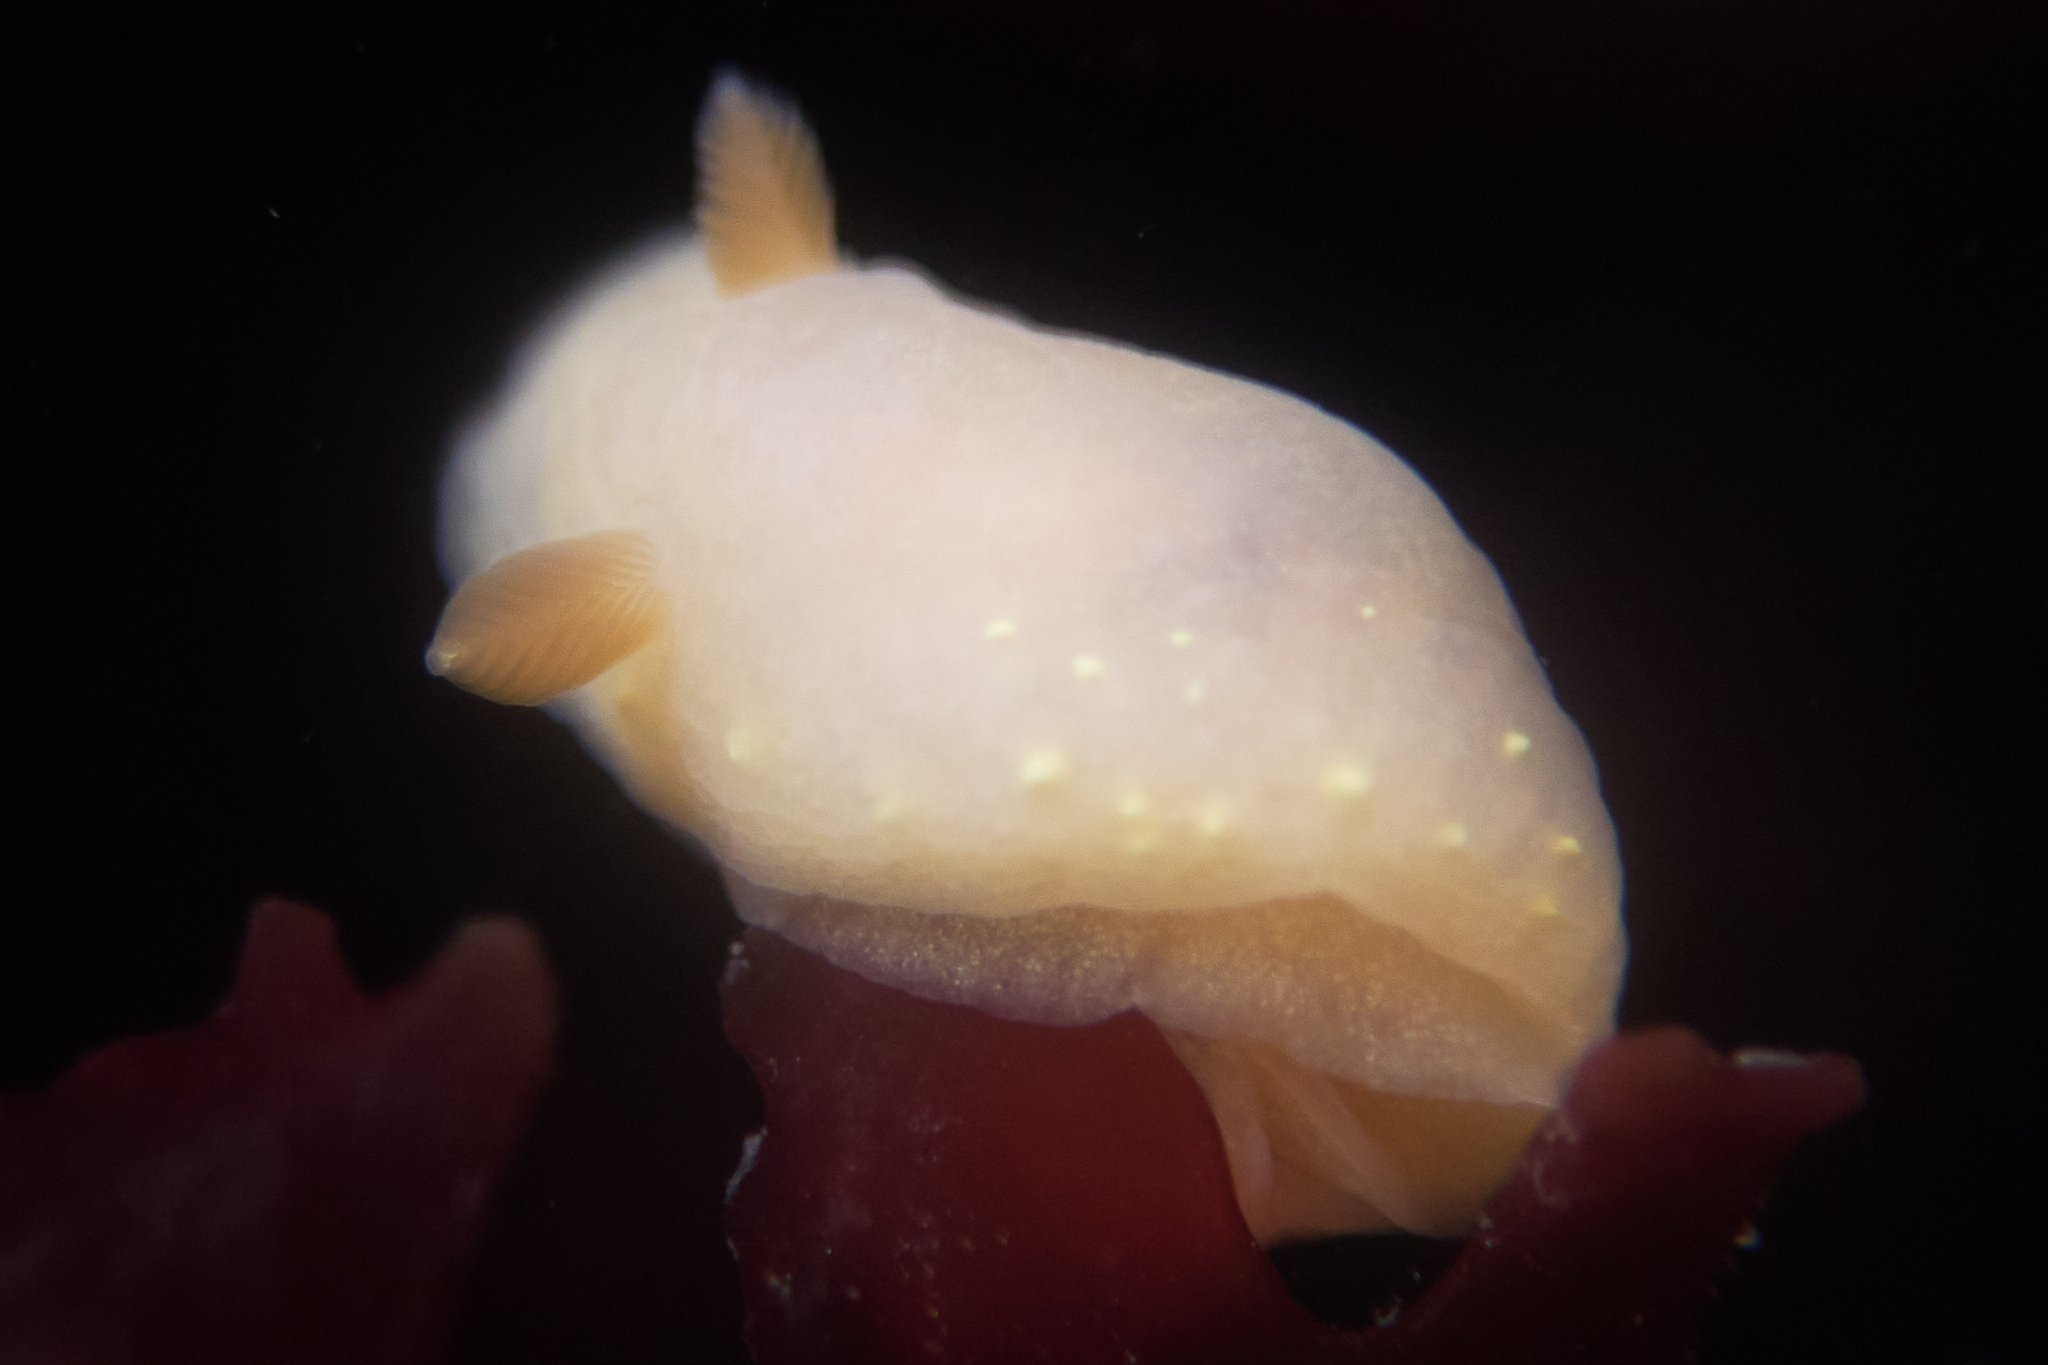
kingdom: Animalia
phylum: Mollusca
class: Gastropoda
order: Nudibranchia
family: Cadlinidae
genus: Cadlina
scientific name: Cadlina modesta
